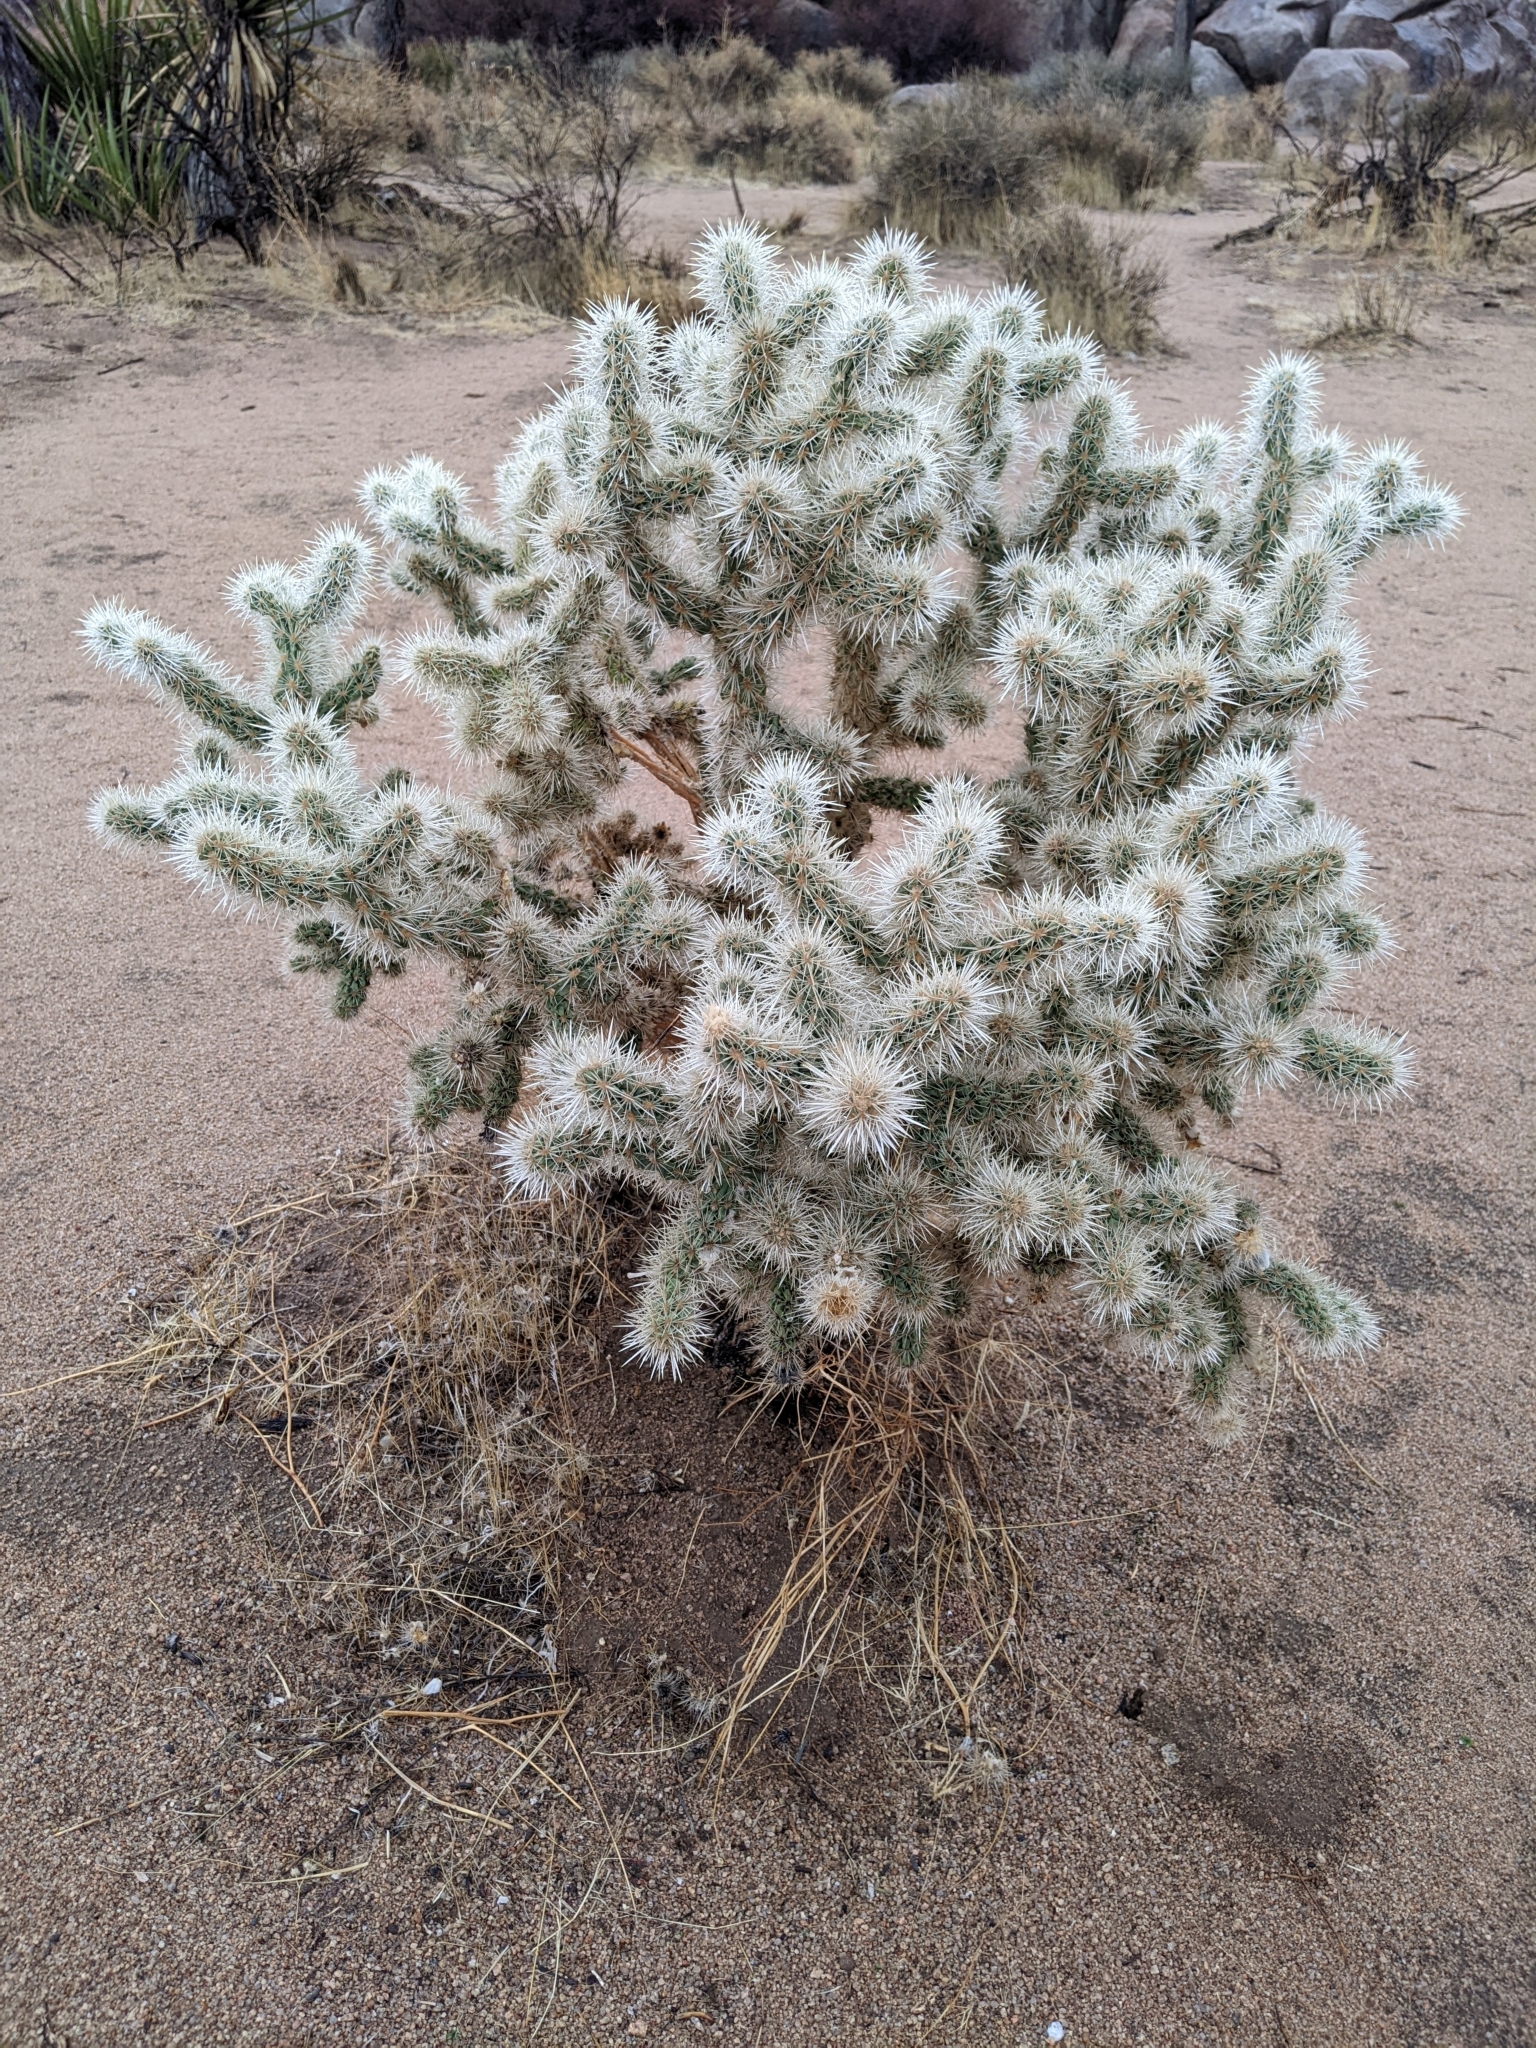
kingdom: Plantae
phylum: Tracheophyta
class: Magnoliopsida
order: Caryophyllales
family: Cactaceae
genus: Cylindropuntia
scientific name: Cylindropuntia echinocarpa
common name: Ground cholla
